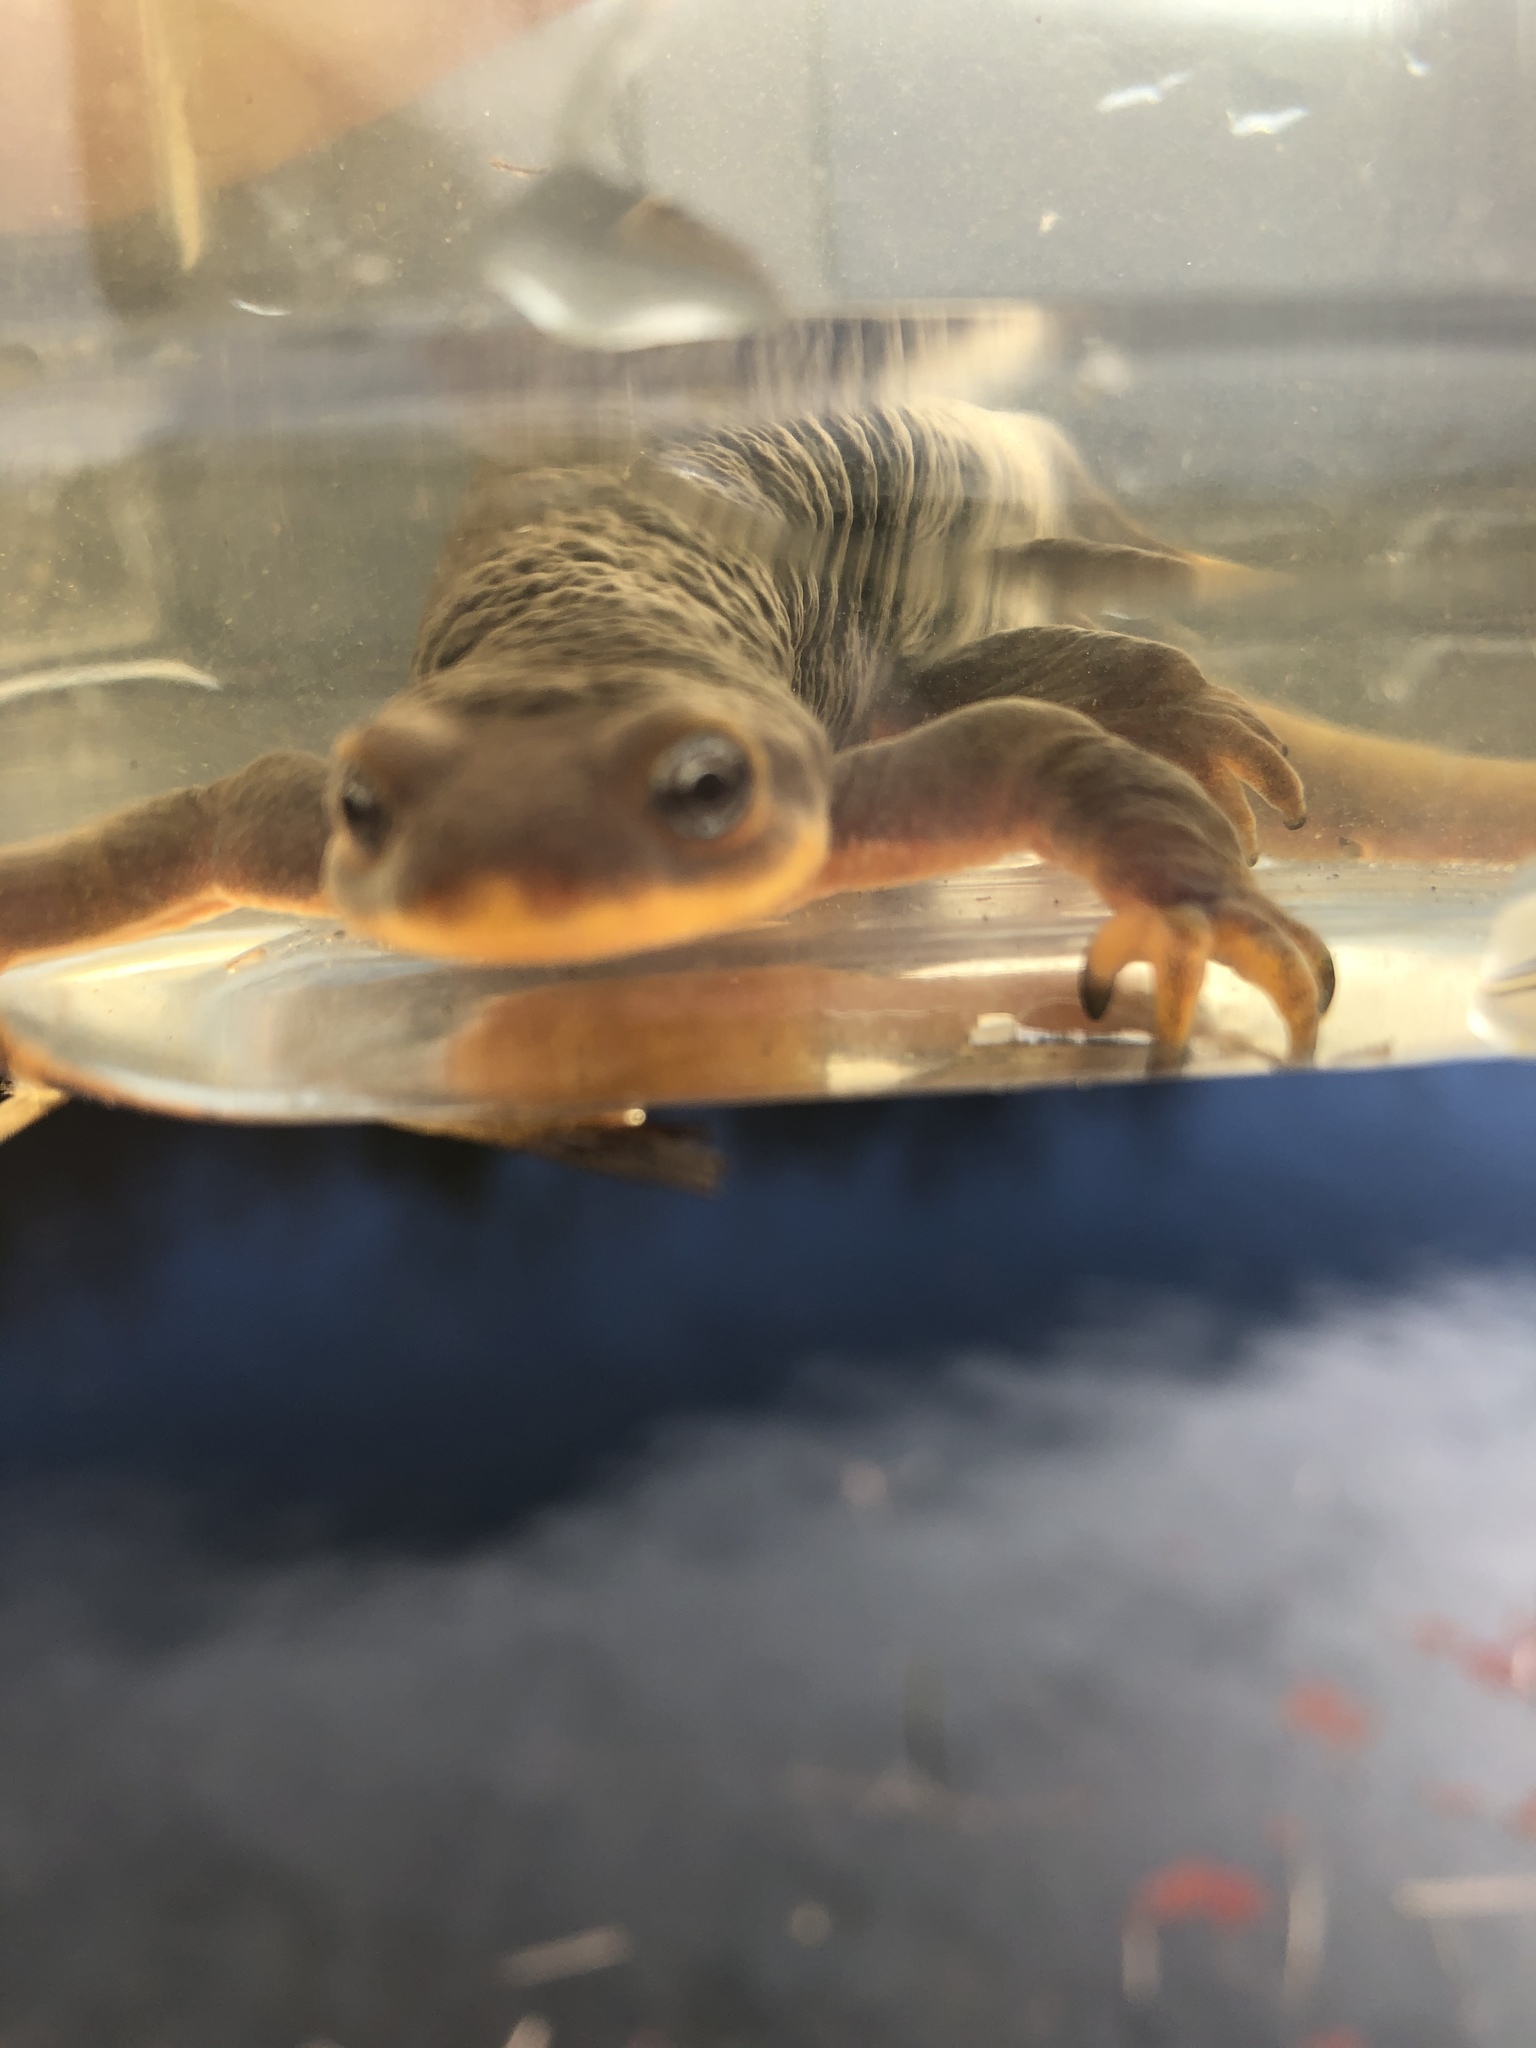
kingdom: Animalia
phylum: Chordata
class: Amphibia
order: Caudata
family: Salamandridae
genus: Taricha
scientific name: Taricha granulosa
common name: Roughskin newt
